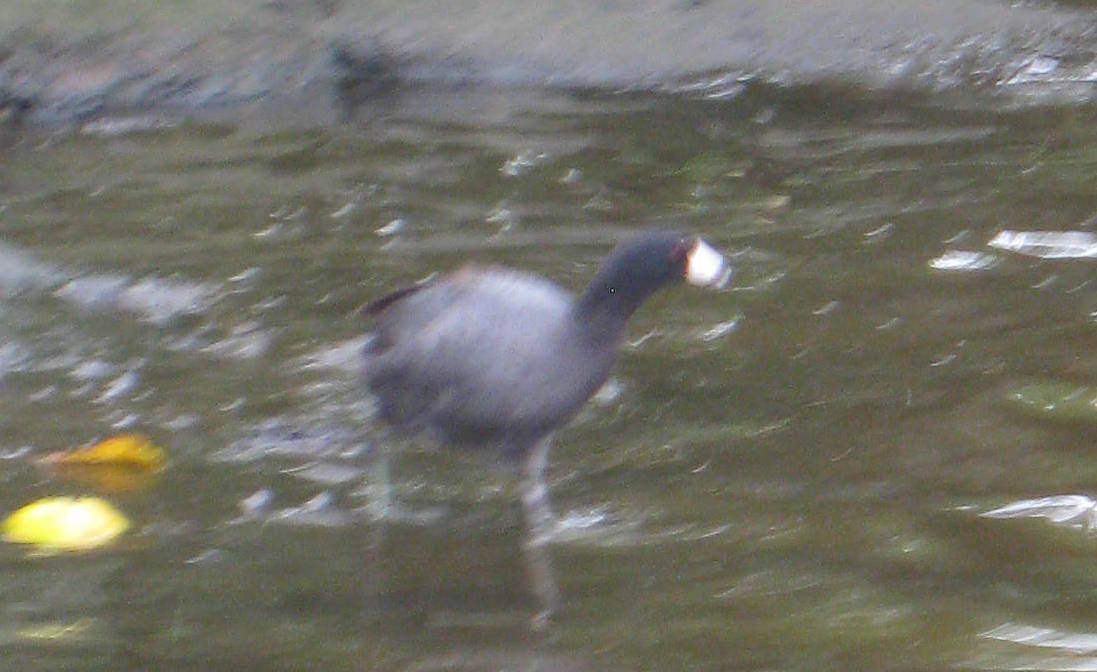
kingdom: Animalia
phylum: Chordata
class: Aves
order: Gruiformes
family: Rallidae
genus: Fulica
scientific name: Fulica americana
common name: American coot
